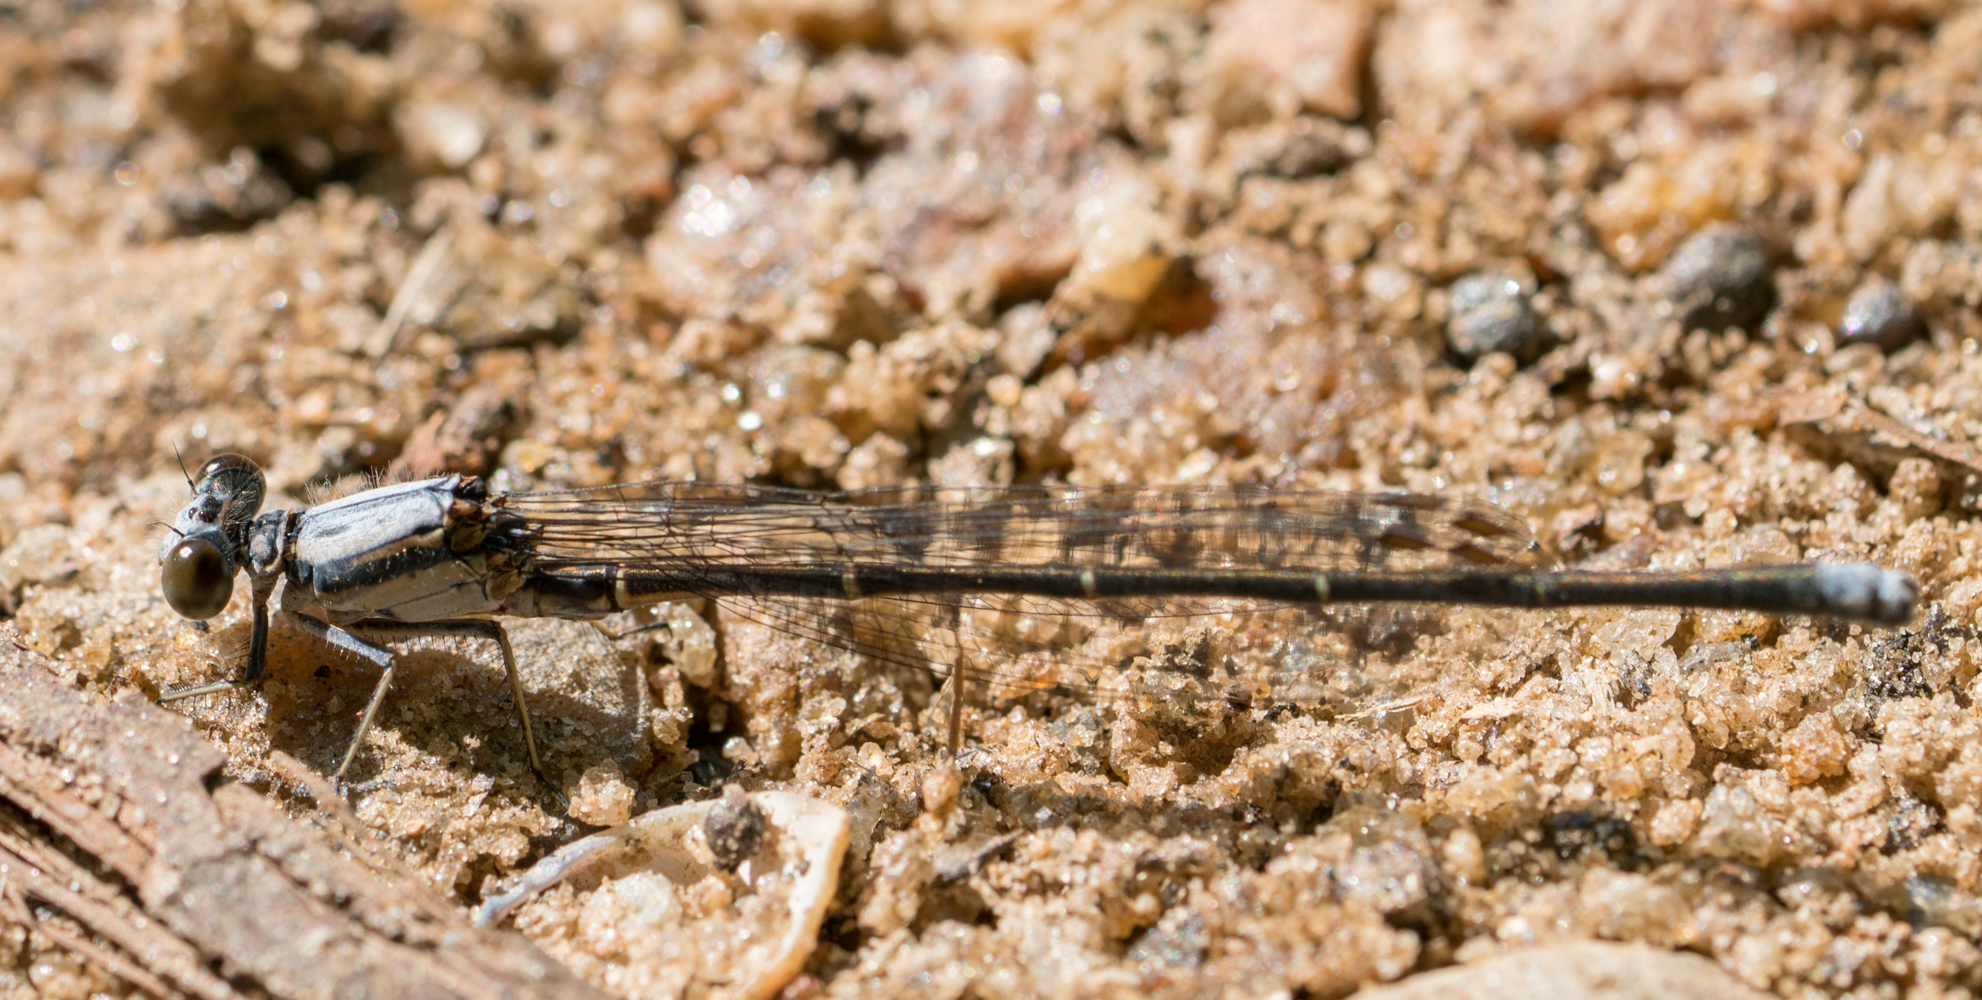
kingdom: Animalia
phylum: Arthropoda
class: Insecta
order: Odonata
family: Coenagrionidae
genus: Argia
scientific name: Argia moesta
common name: Powdered dancer
